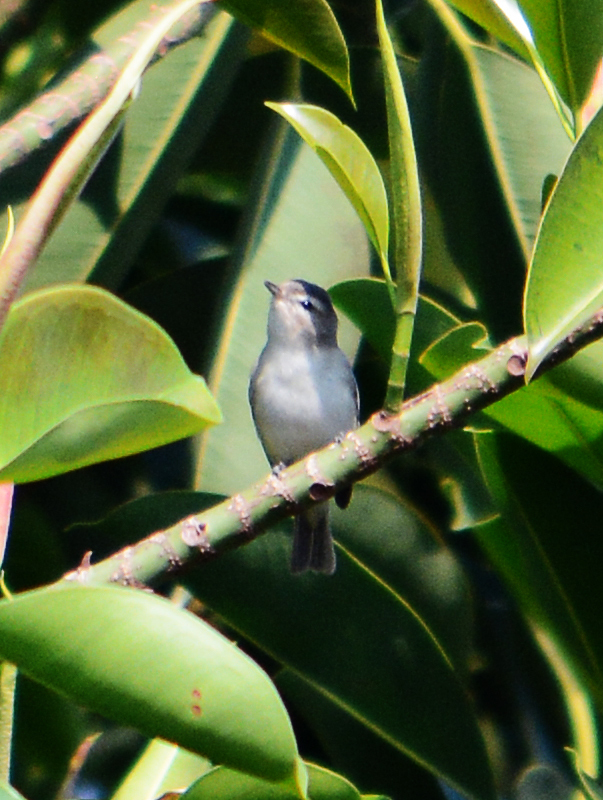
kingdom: Animalia
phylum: Chordata
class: Aves
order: Passeriformes
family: Vireonidae
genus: Vireo
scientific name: Vireo gilvus
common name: Warbling vireo
